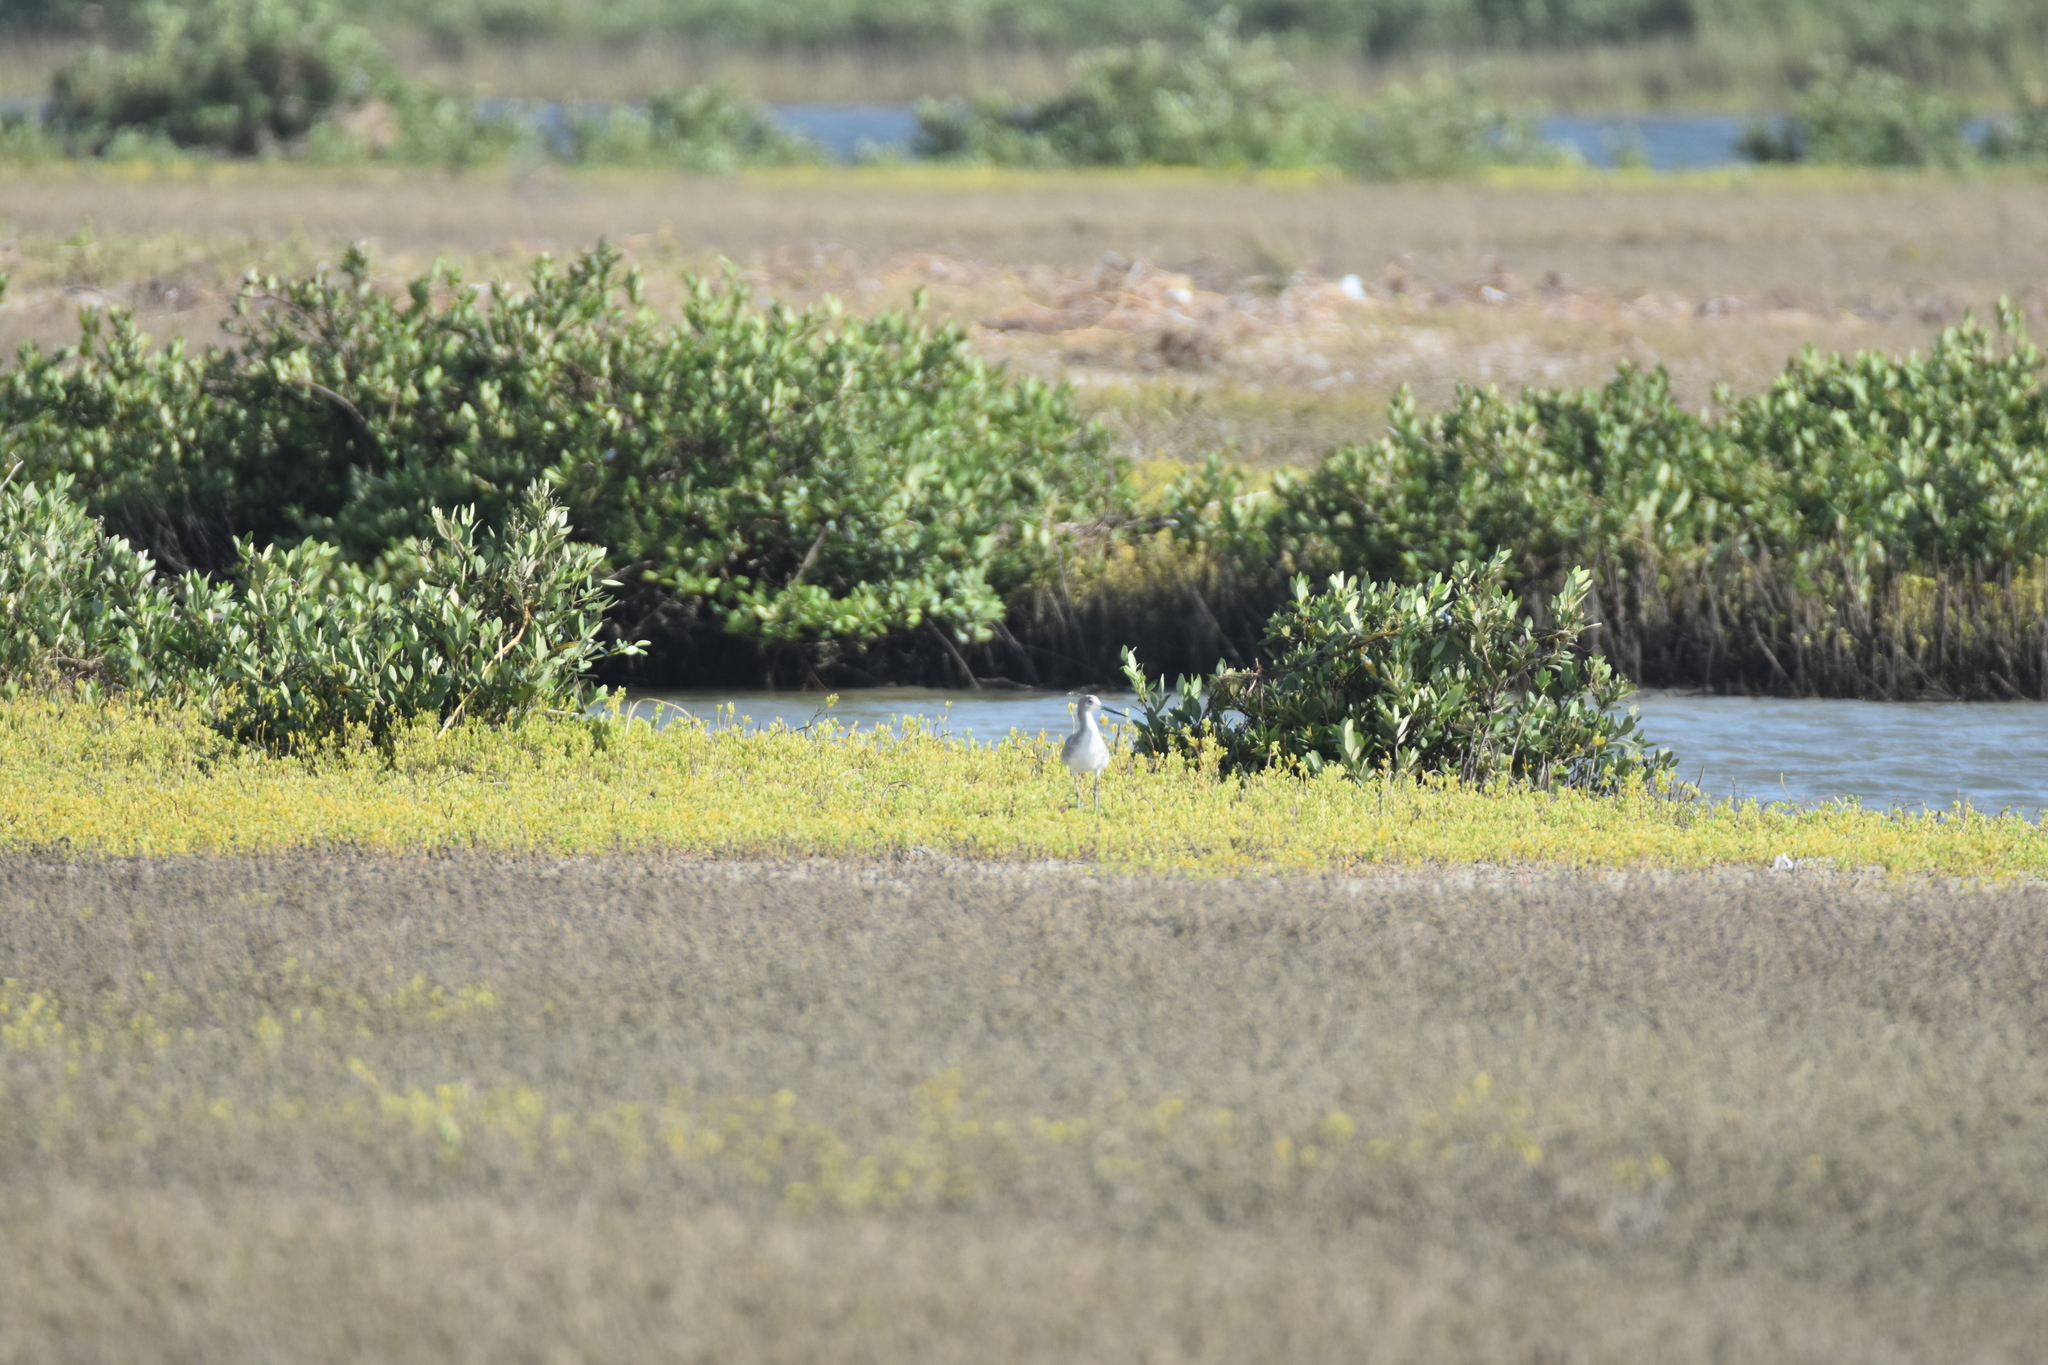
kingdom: Animalia
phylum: Chordata
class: Aves
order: Charadriiformes
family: Scolopacidae
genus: Tringa
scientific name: Tringa semipalmata
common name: Willet
